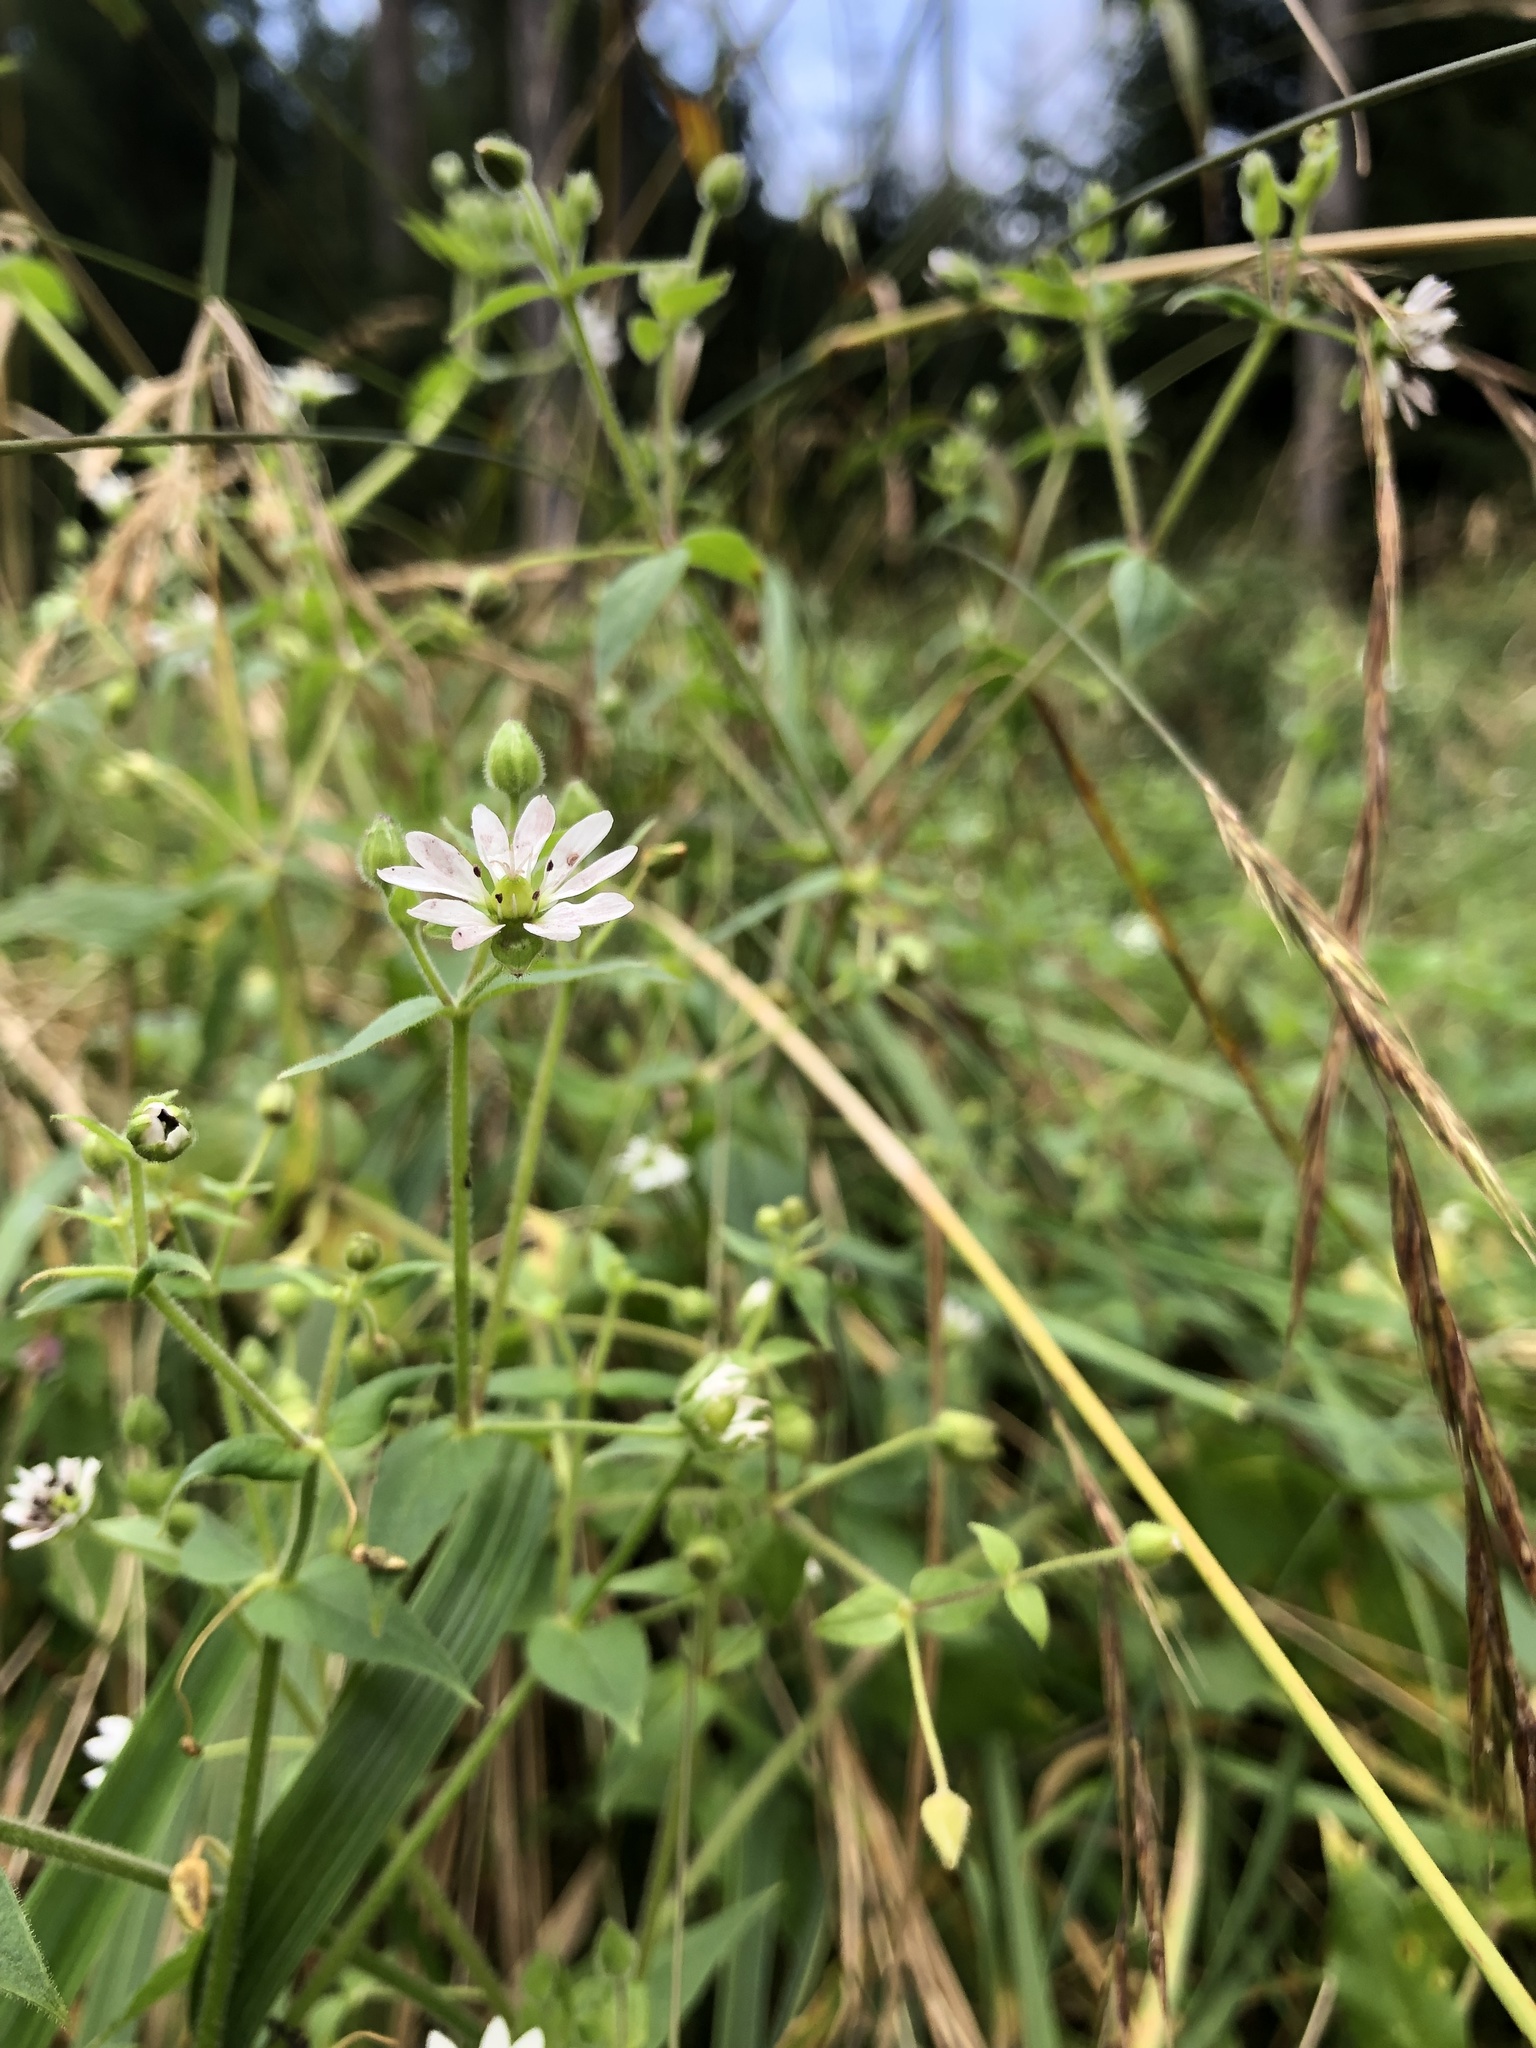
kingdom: Plantae
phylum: Tracheophyta
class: Magnoliopsida
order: Caryophyllales
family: Caryophyllaceae
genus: Stellaria
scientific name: Stellaria aquatica
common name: Water chickweed
